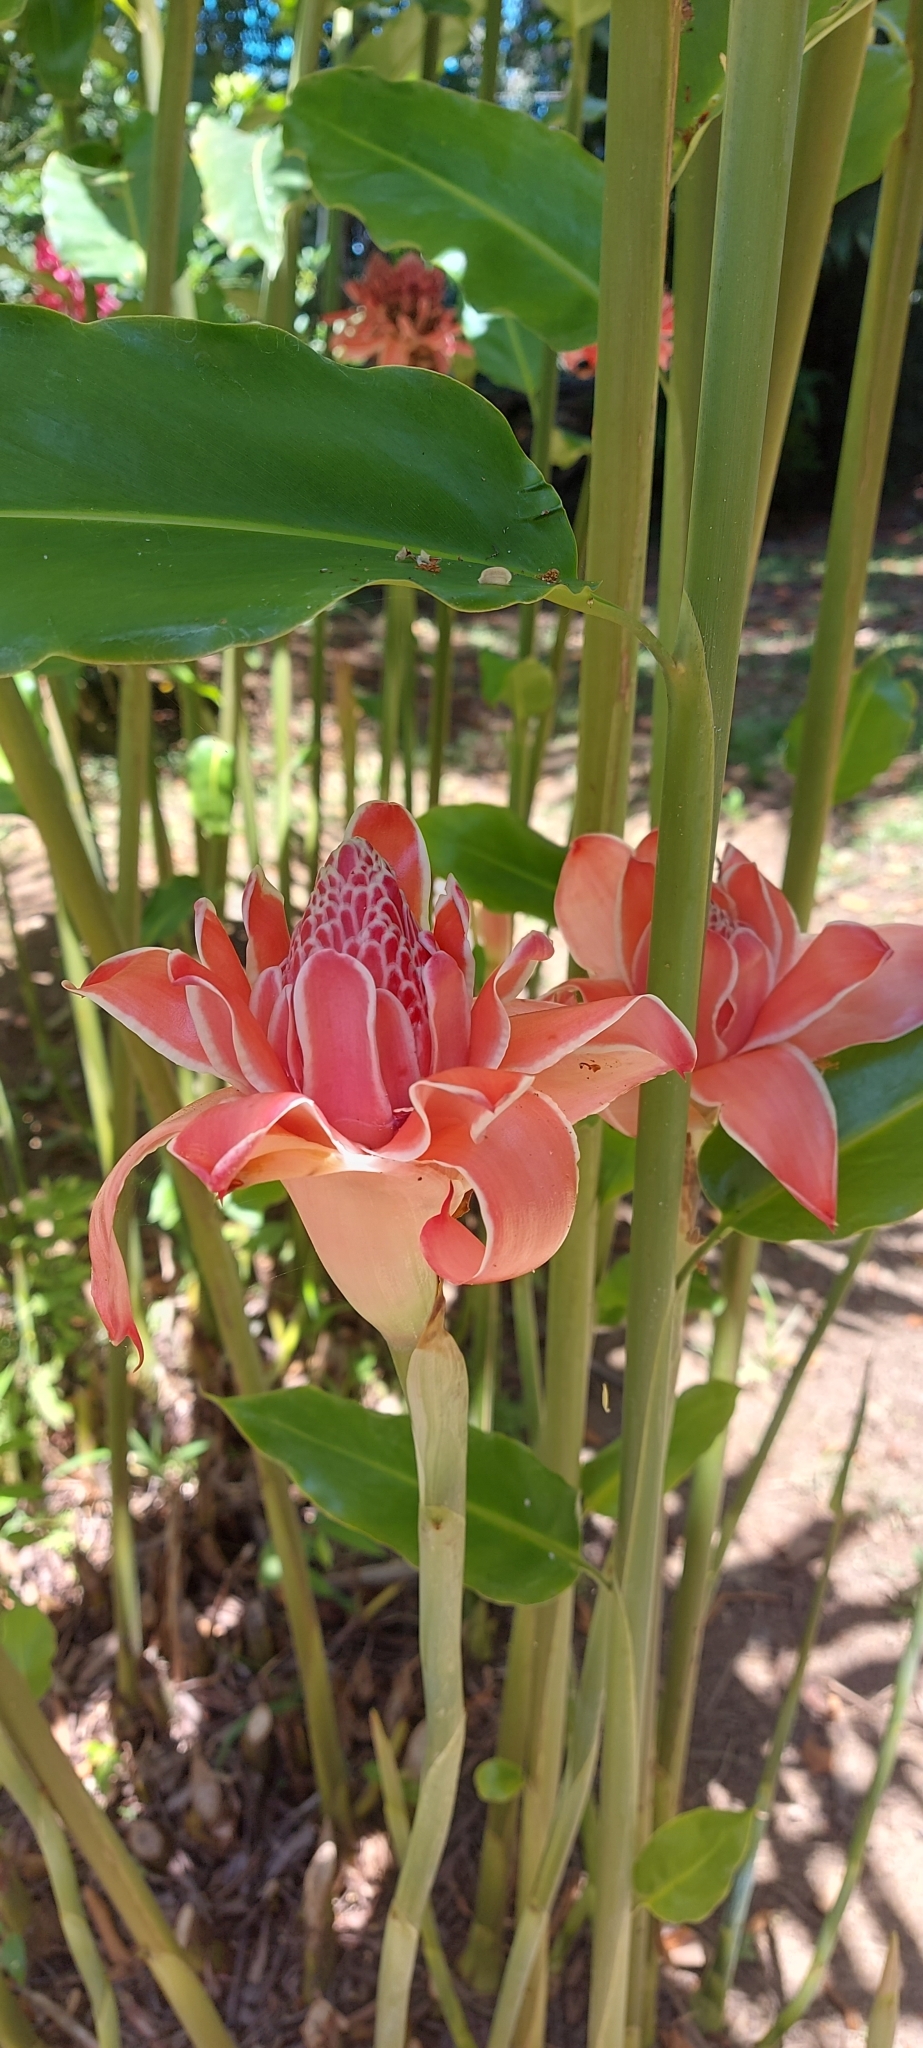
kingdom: Plantae
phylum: Tracheophyta
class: Liliopsida
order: Zingiberales
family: Zingiberaceae
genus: Etlingera
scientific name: Etlingera elatior
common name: Philippine waxflower
